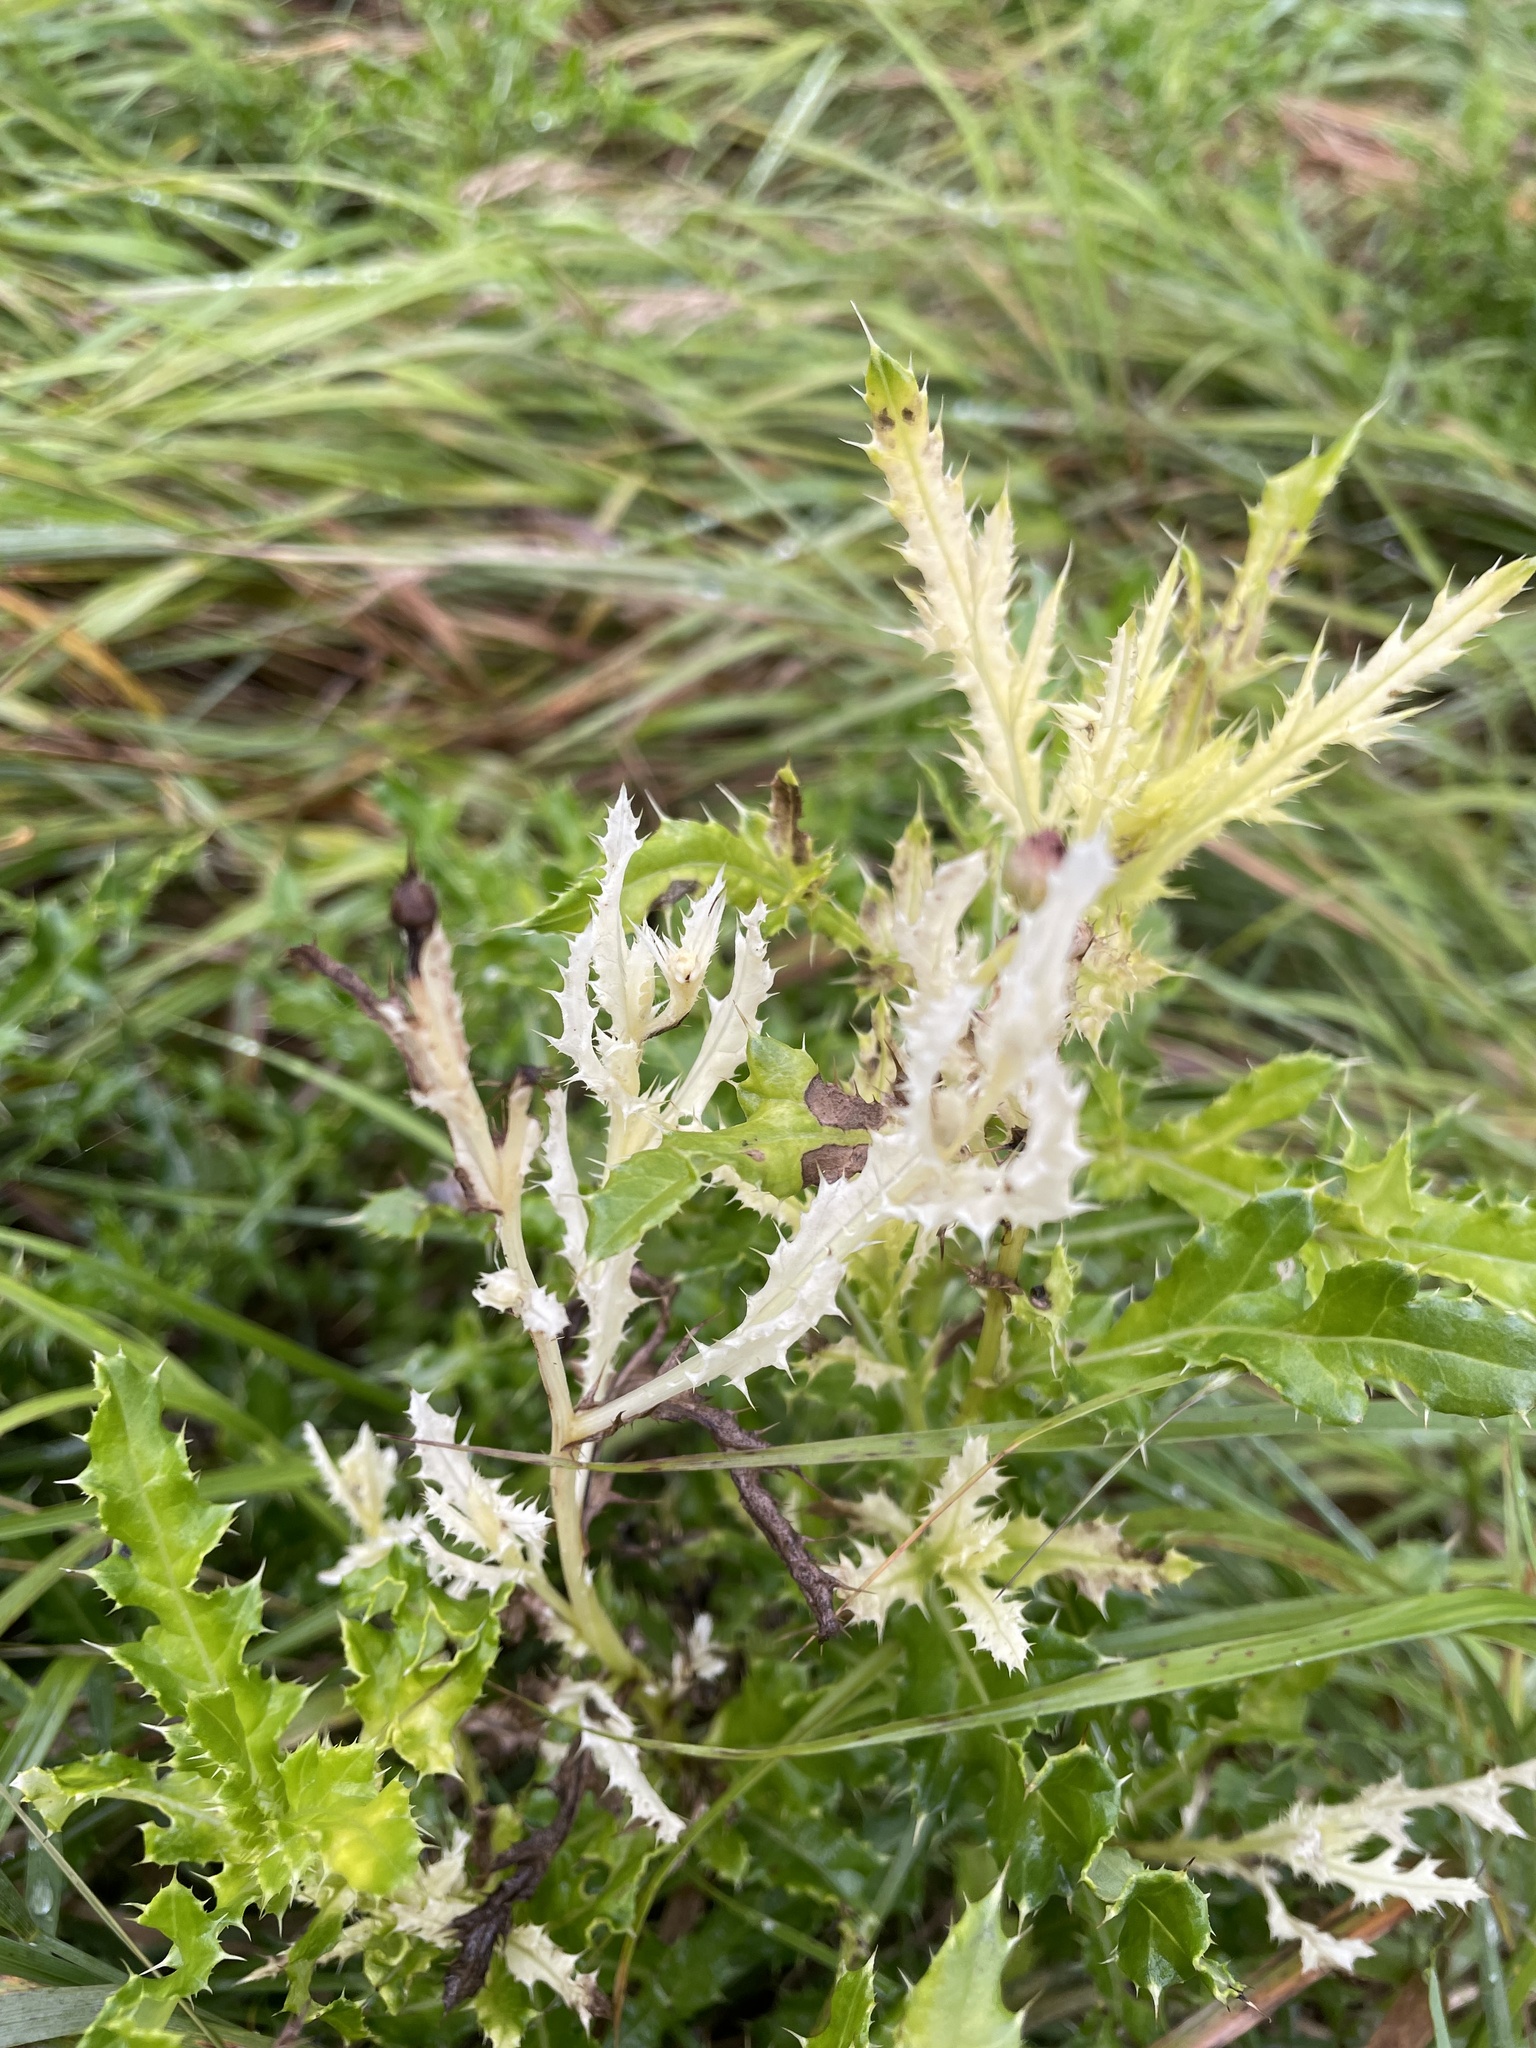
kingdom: Bacteria
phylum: Proteobacteria
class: Gammaproteobacteria
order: Pseudomonadales
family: Pseudomonadaceae
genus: Pseudomonas
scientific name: Pseudomonas syringae
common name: Bacterial speck
